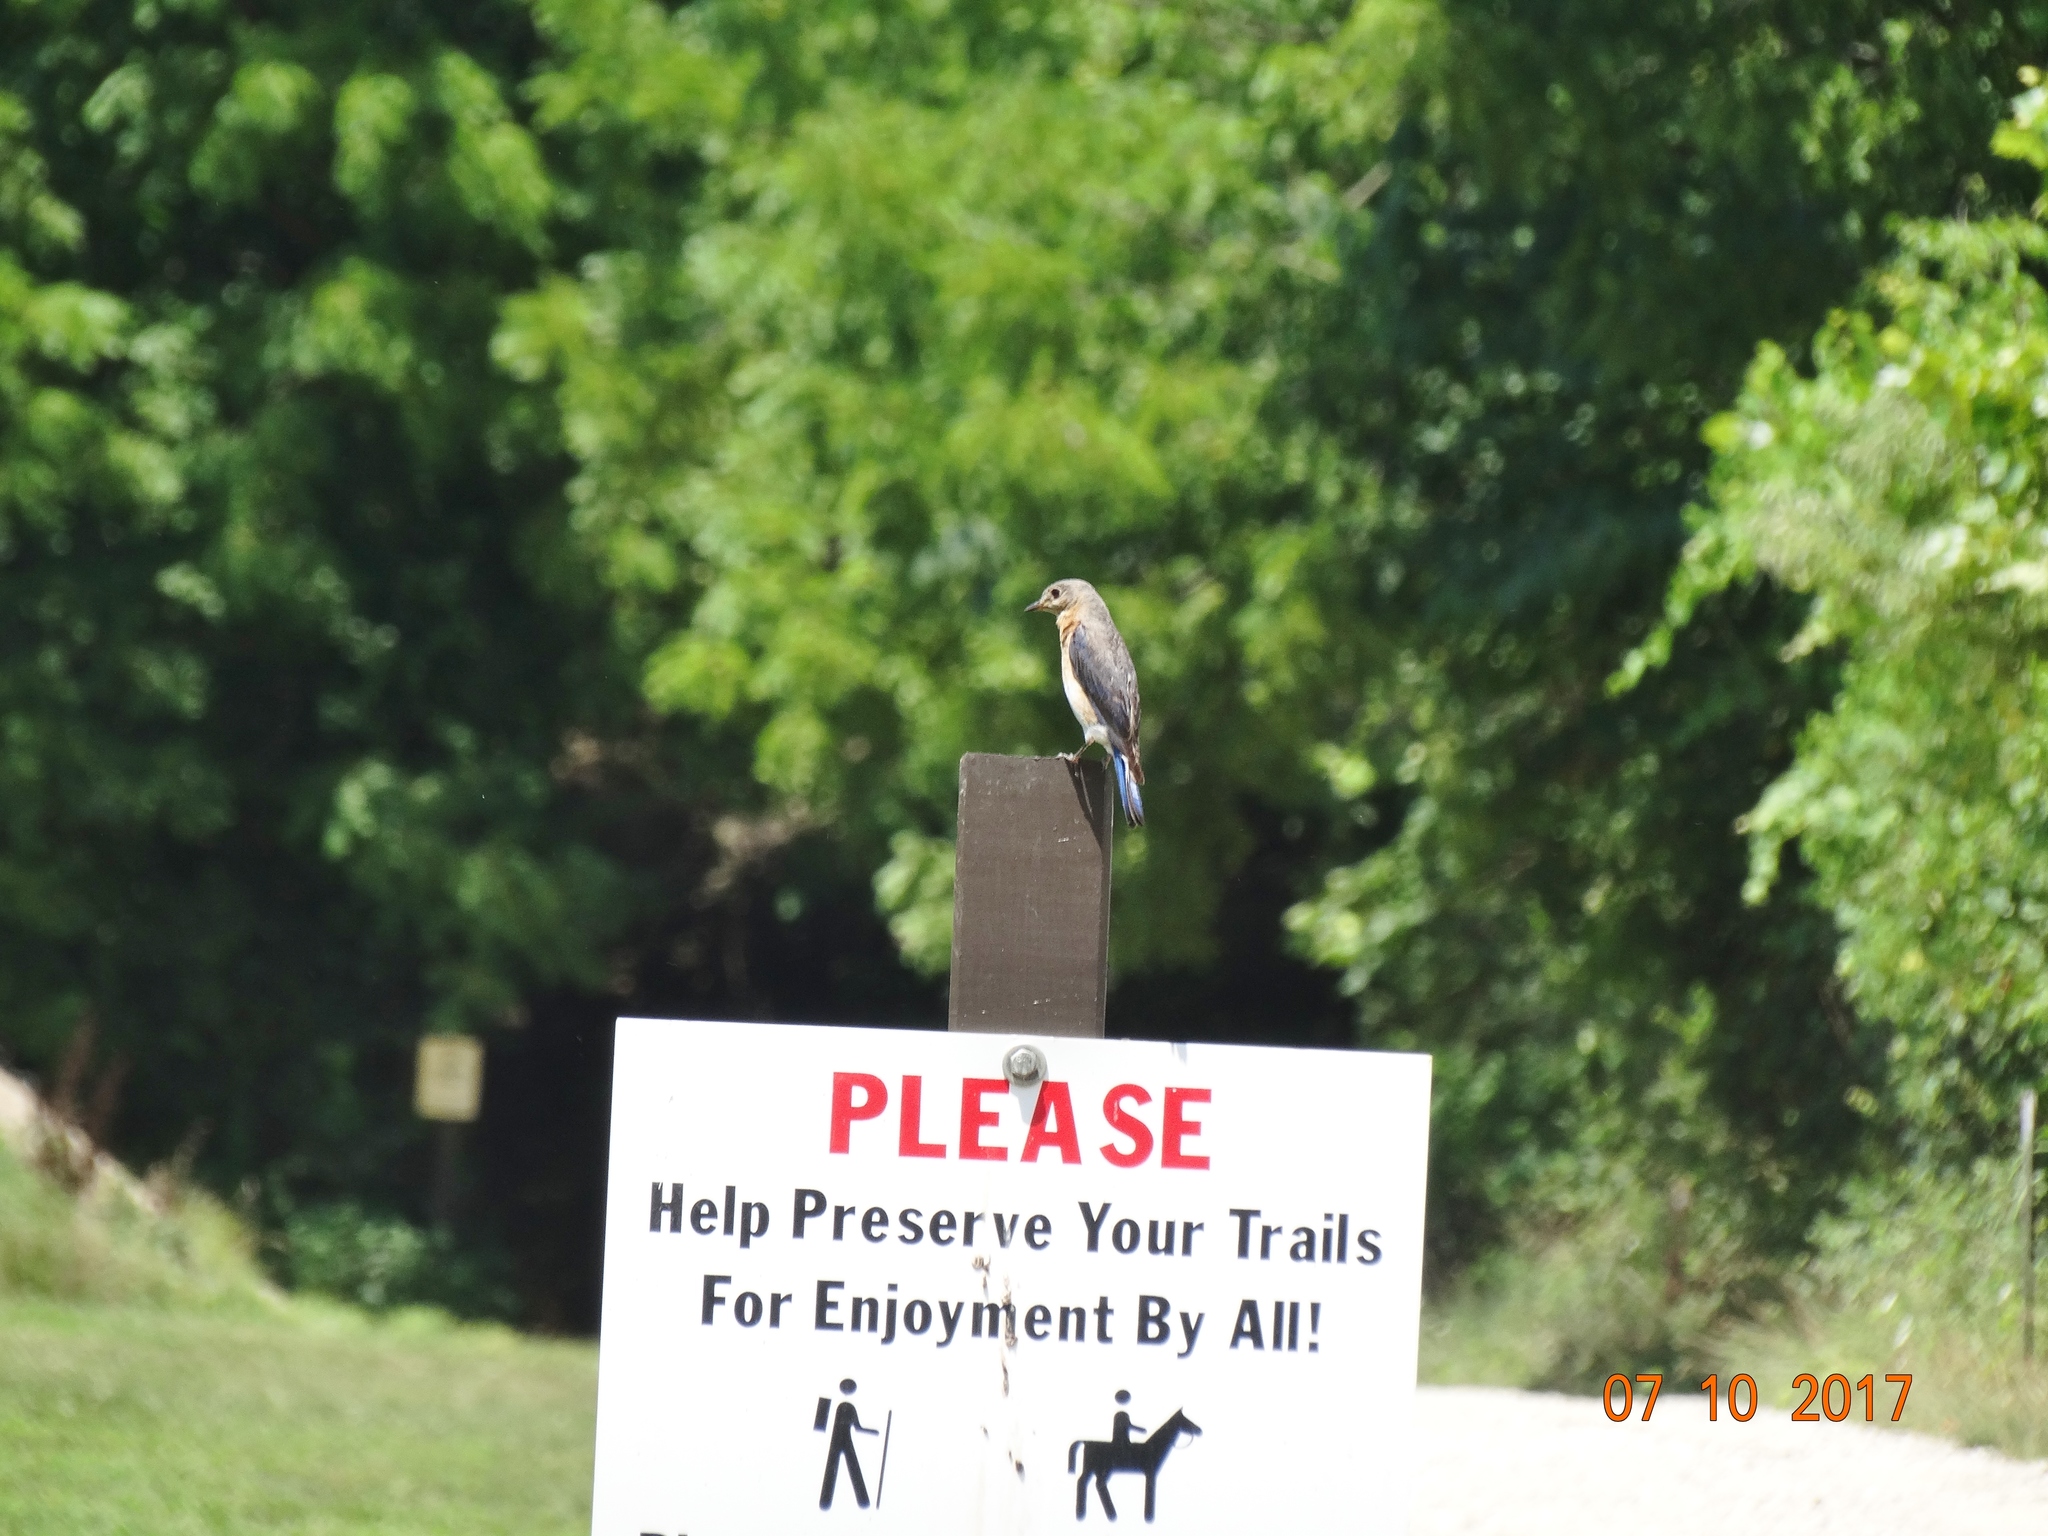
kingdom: Animalia
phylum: Chordata
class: Aves
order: Passeriformes
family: Turdidae
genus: Sialia
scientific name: Sialia sialis
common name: Eastern bluebird
